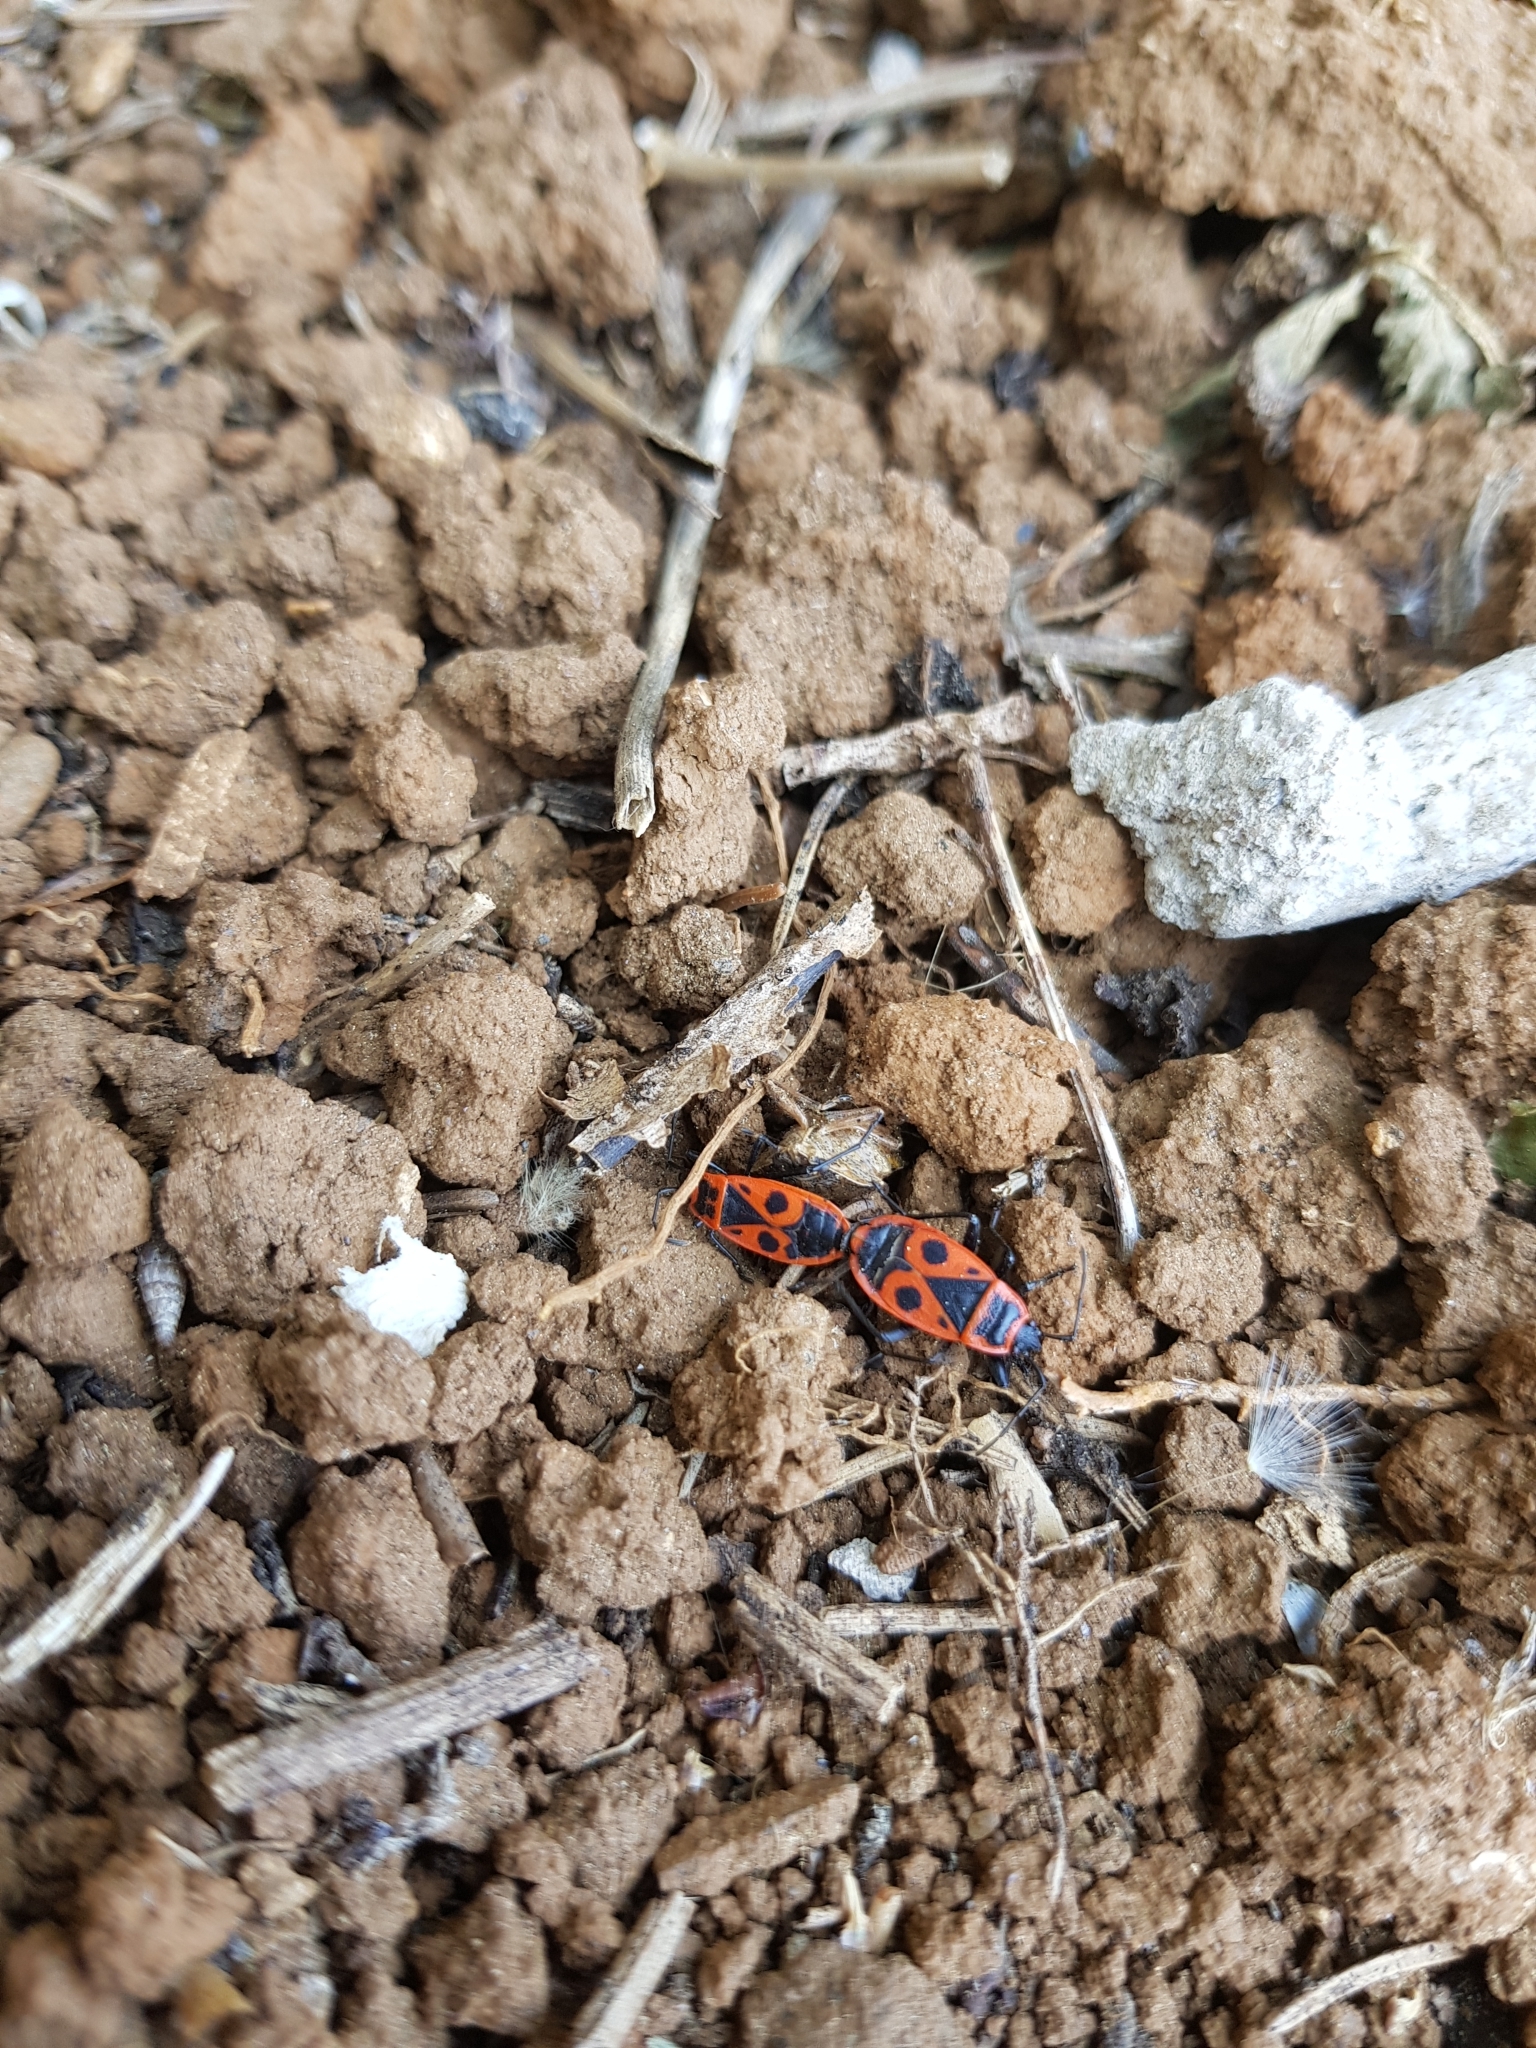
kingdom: Animalia
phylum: Arthropoda
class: Insecta
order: Hemiptera
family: Pyrrhocoridae
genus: Pyrrhocoris
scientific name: Pyrrhocoris apterus
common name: Firebug
